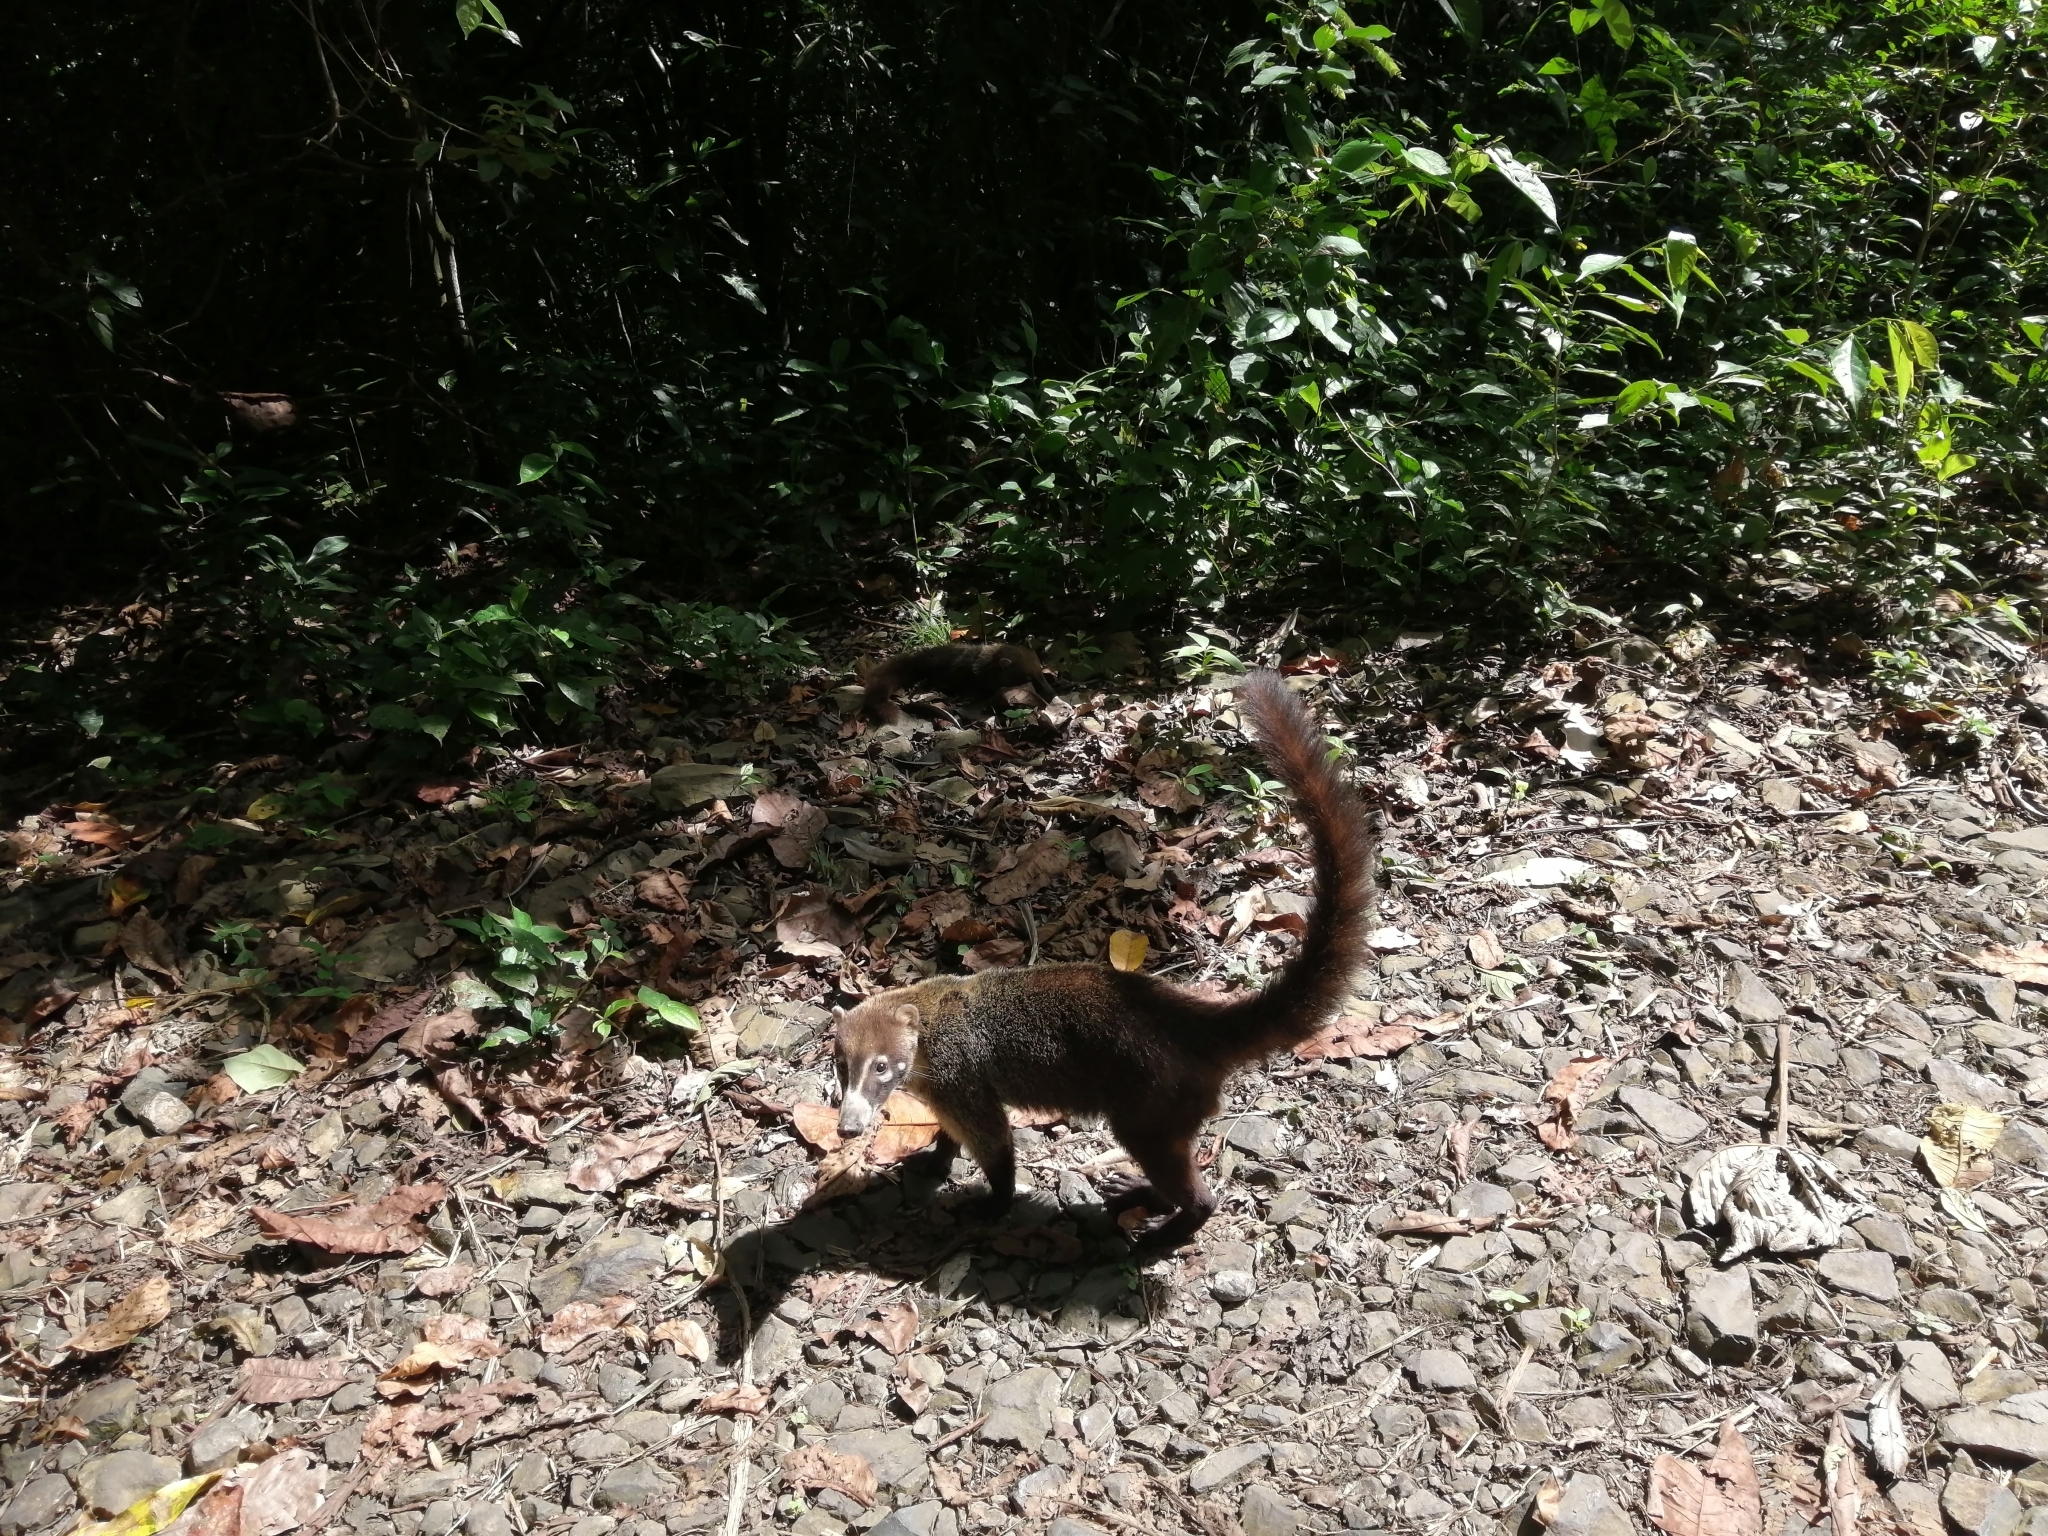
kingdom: Animalia
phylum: Chordata
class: Mammalia
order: Carnivora
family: Procyonidae
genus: Nasua
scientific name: Nasua narica
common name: White-nosed coati
